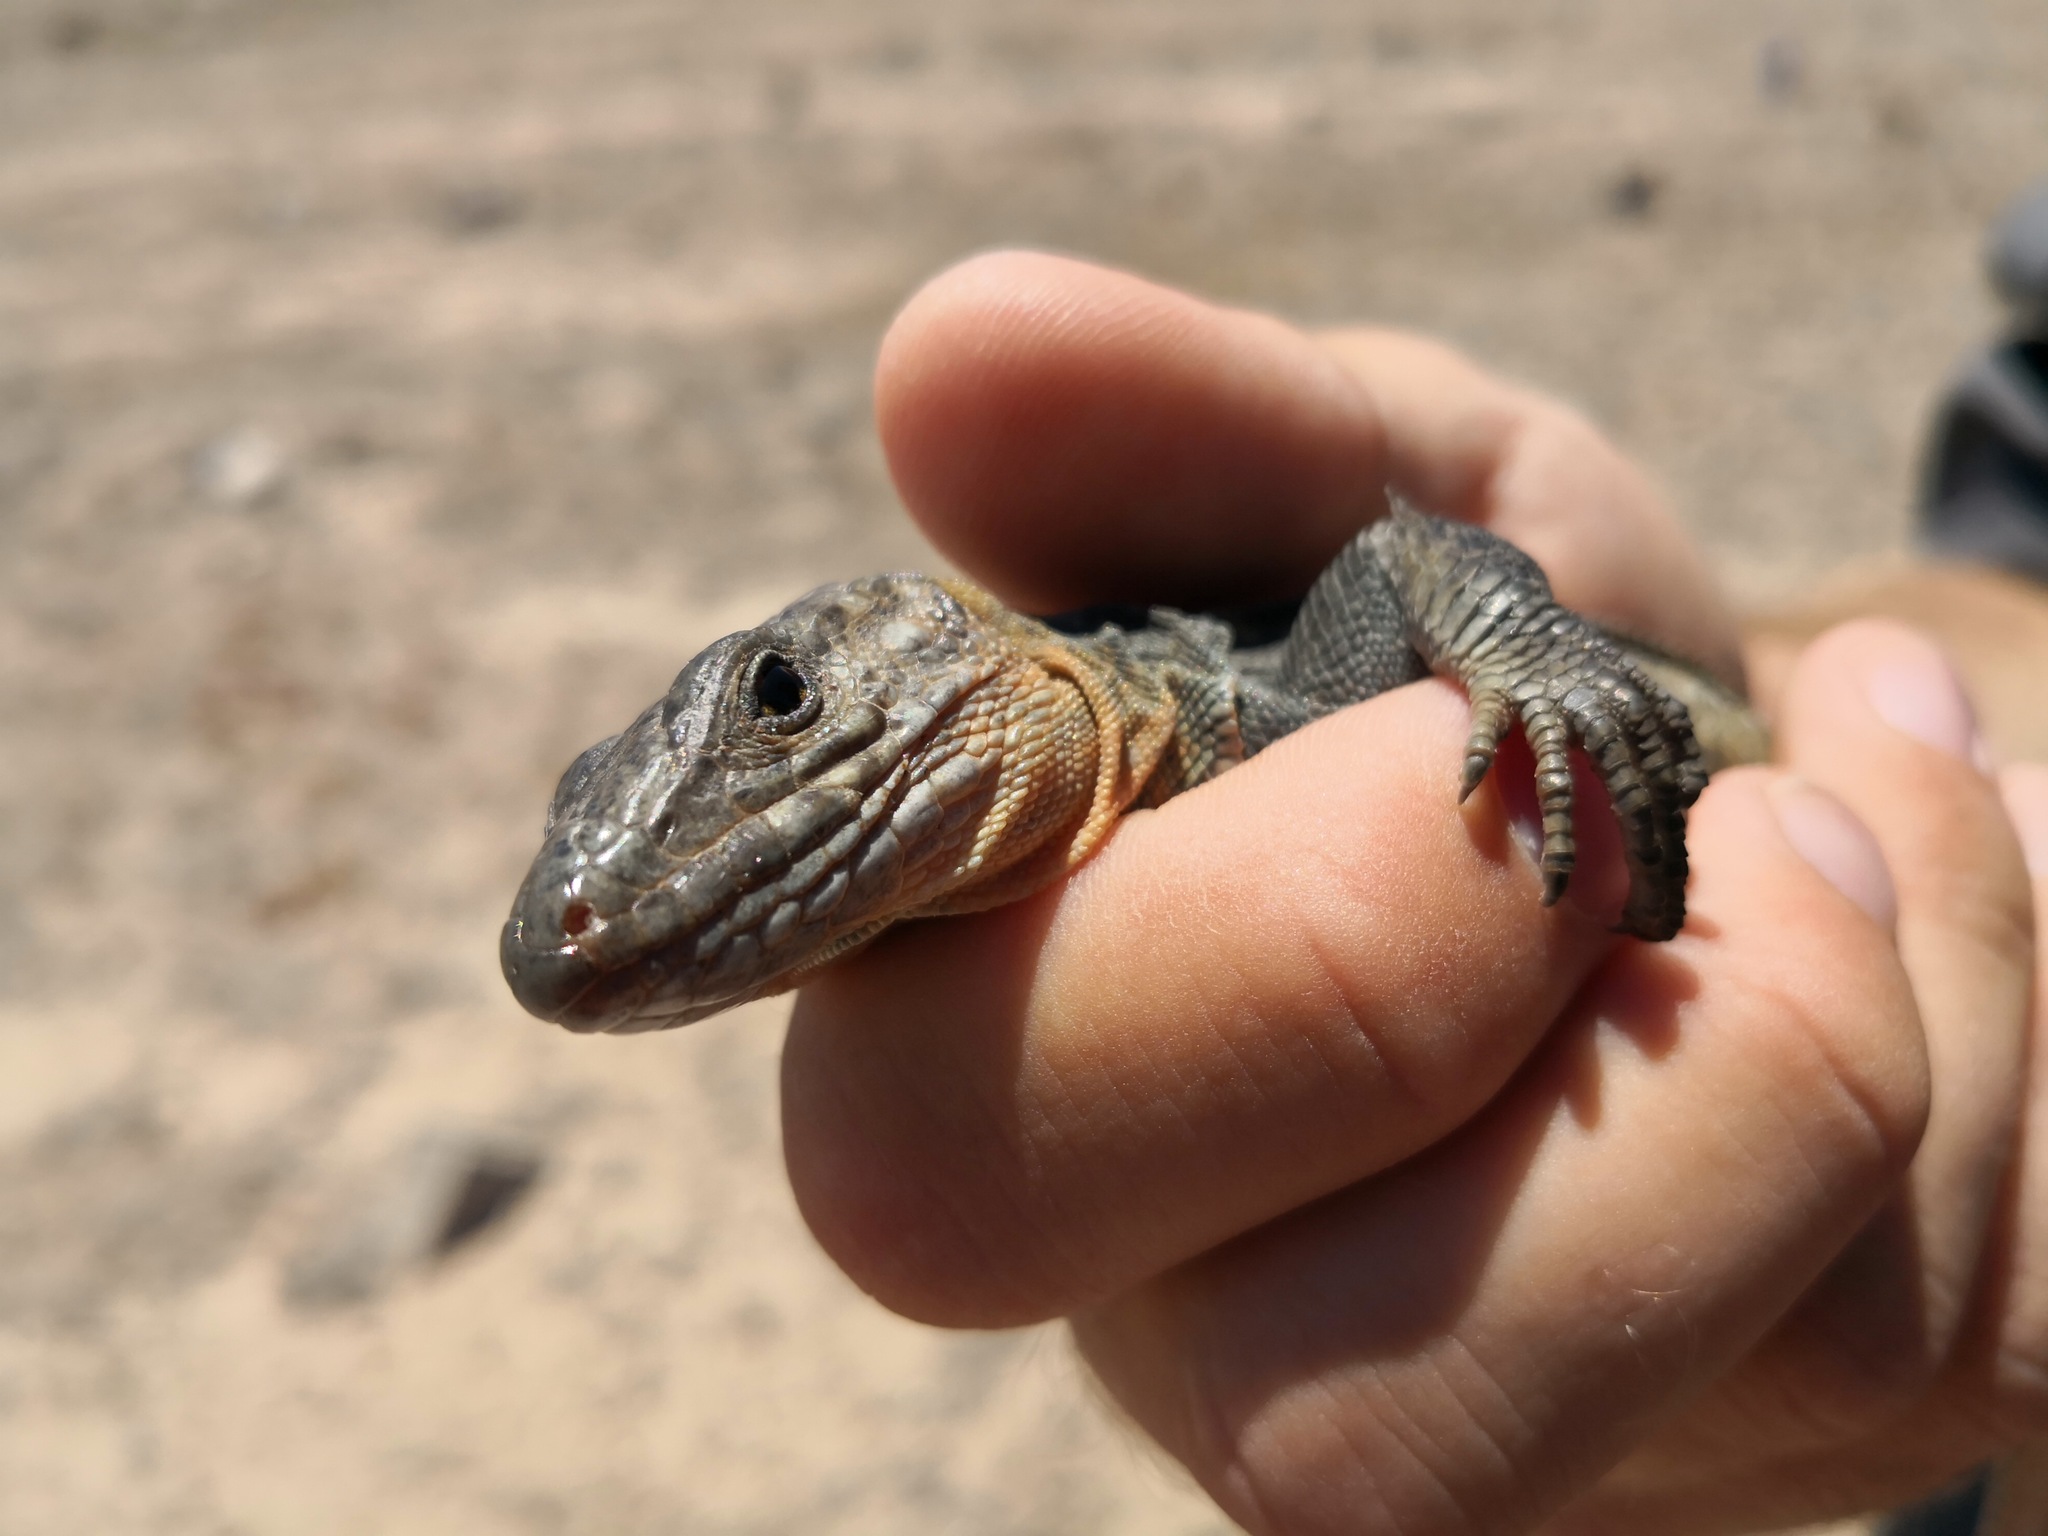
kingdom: Animalia
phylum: Chordata
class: Squamata
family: Lacertidae
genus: Gallotia
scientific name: Gallotia stehlini
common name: Gran canaria giant lizard
